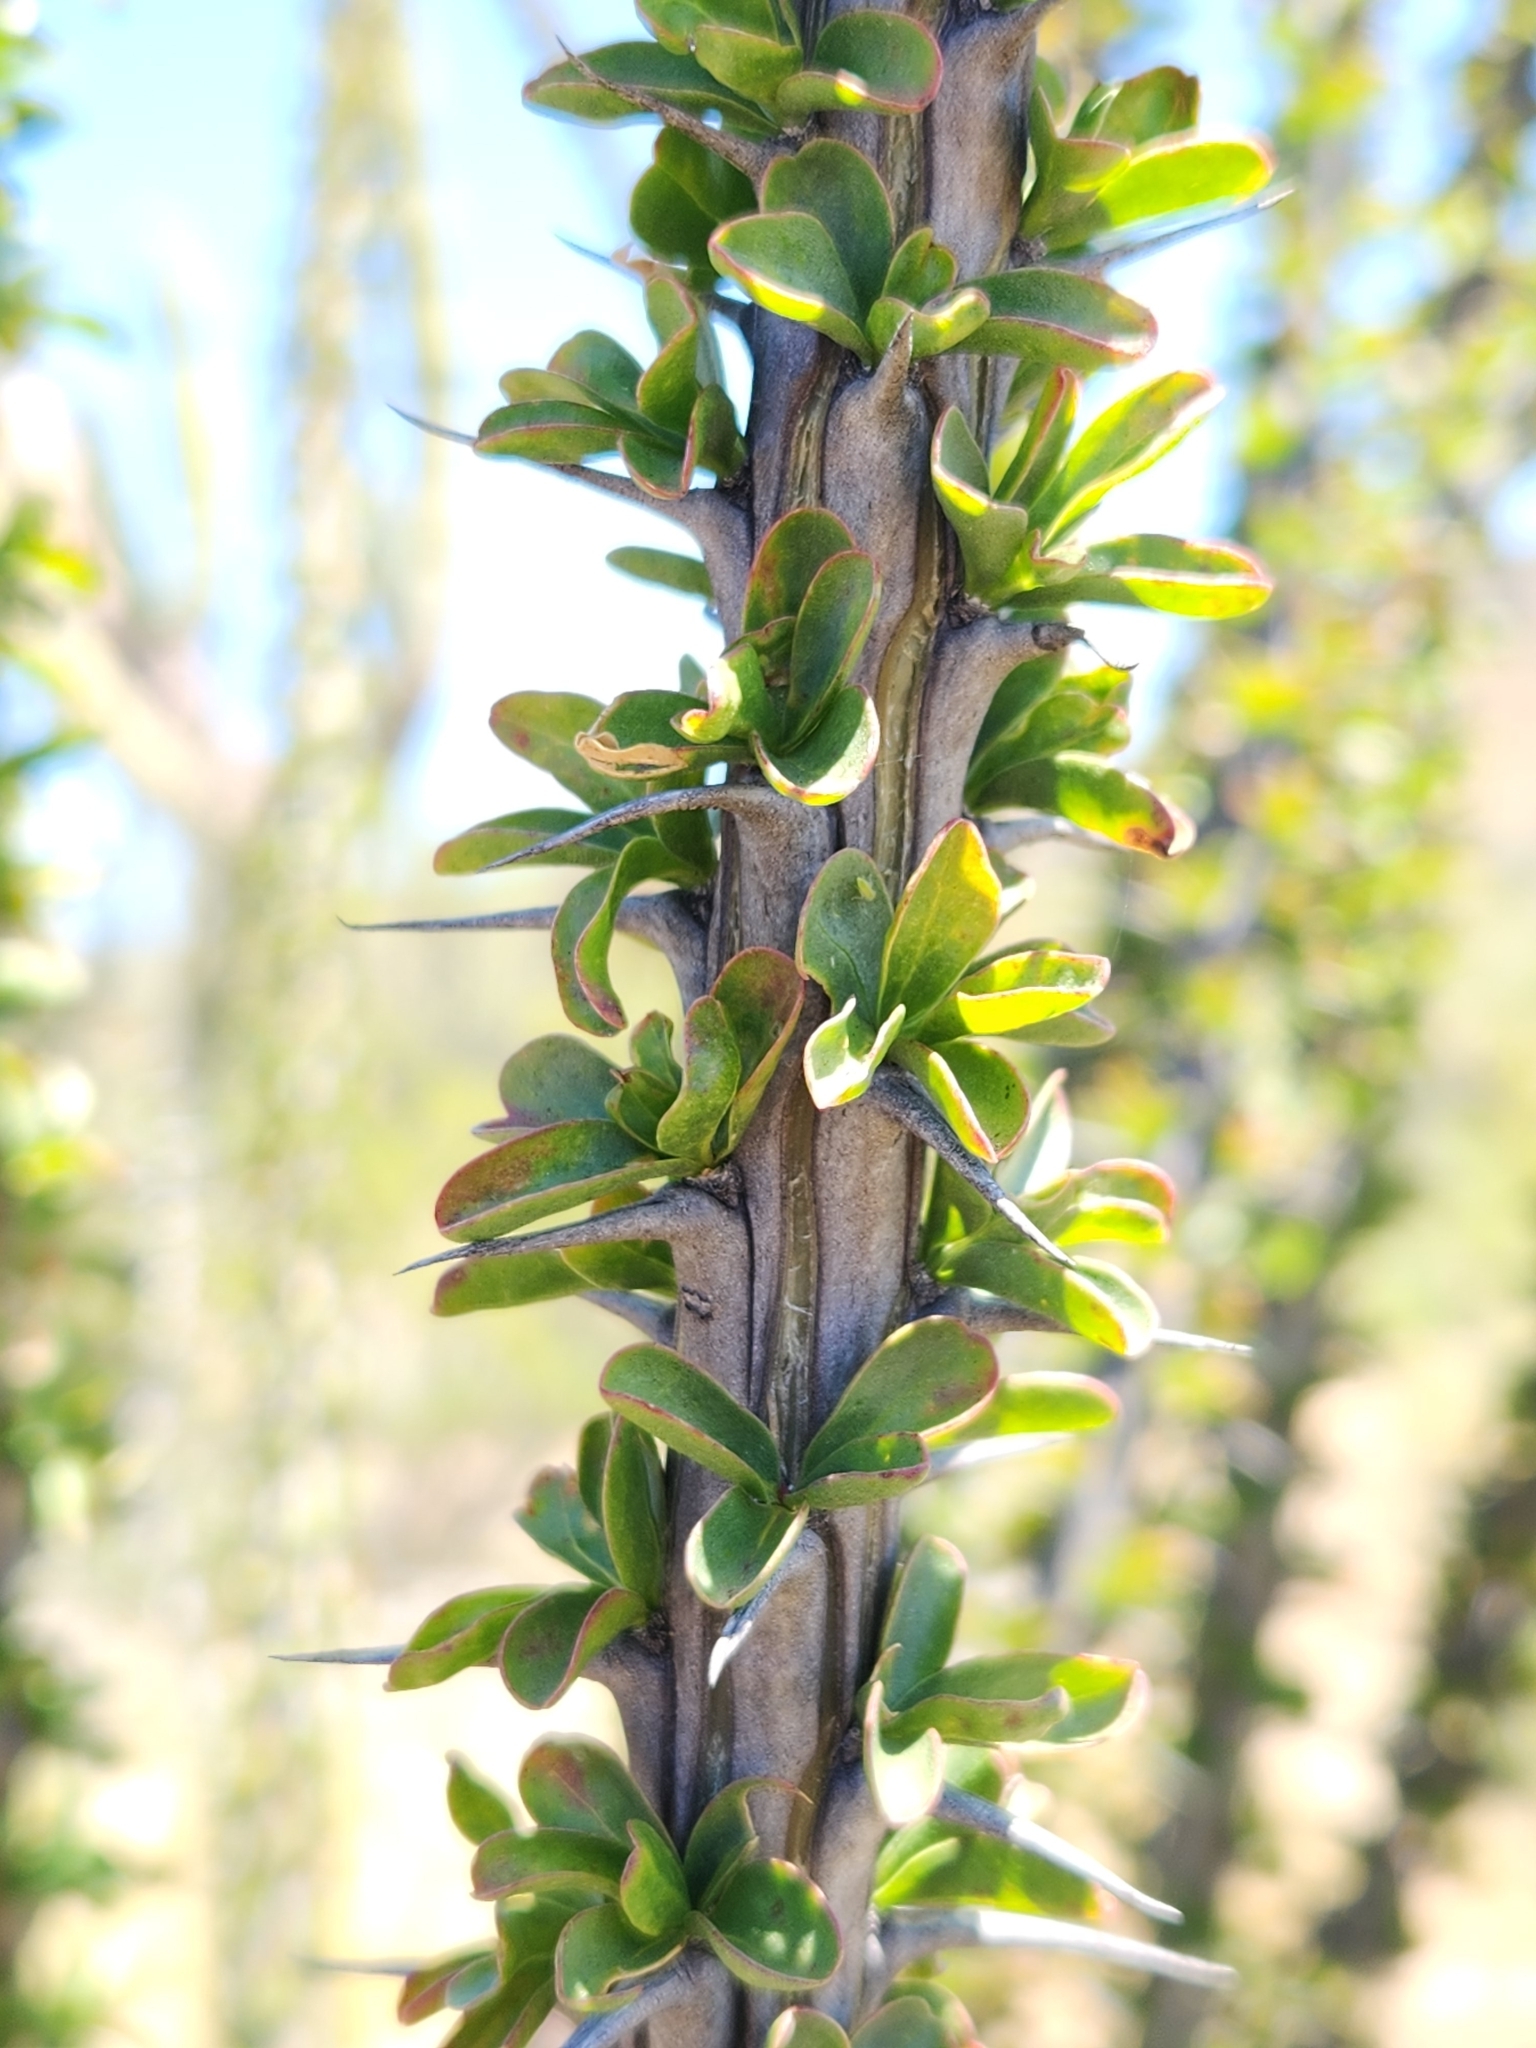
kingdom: Plantae
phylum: Tracheophyta
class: Magnoliopsida
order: Ericales
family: Fouquieriaceae
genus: Fouquieria
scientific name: Fouquieria splendens
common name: Vine-cactus
